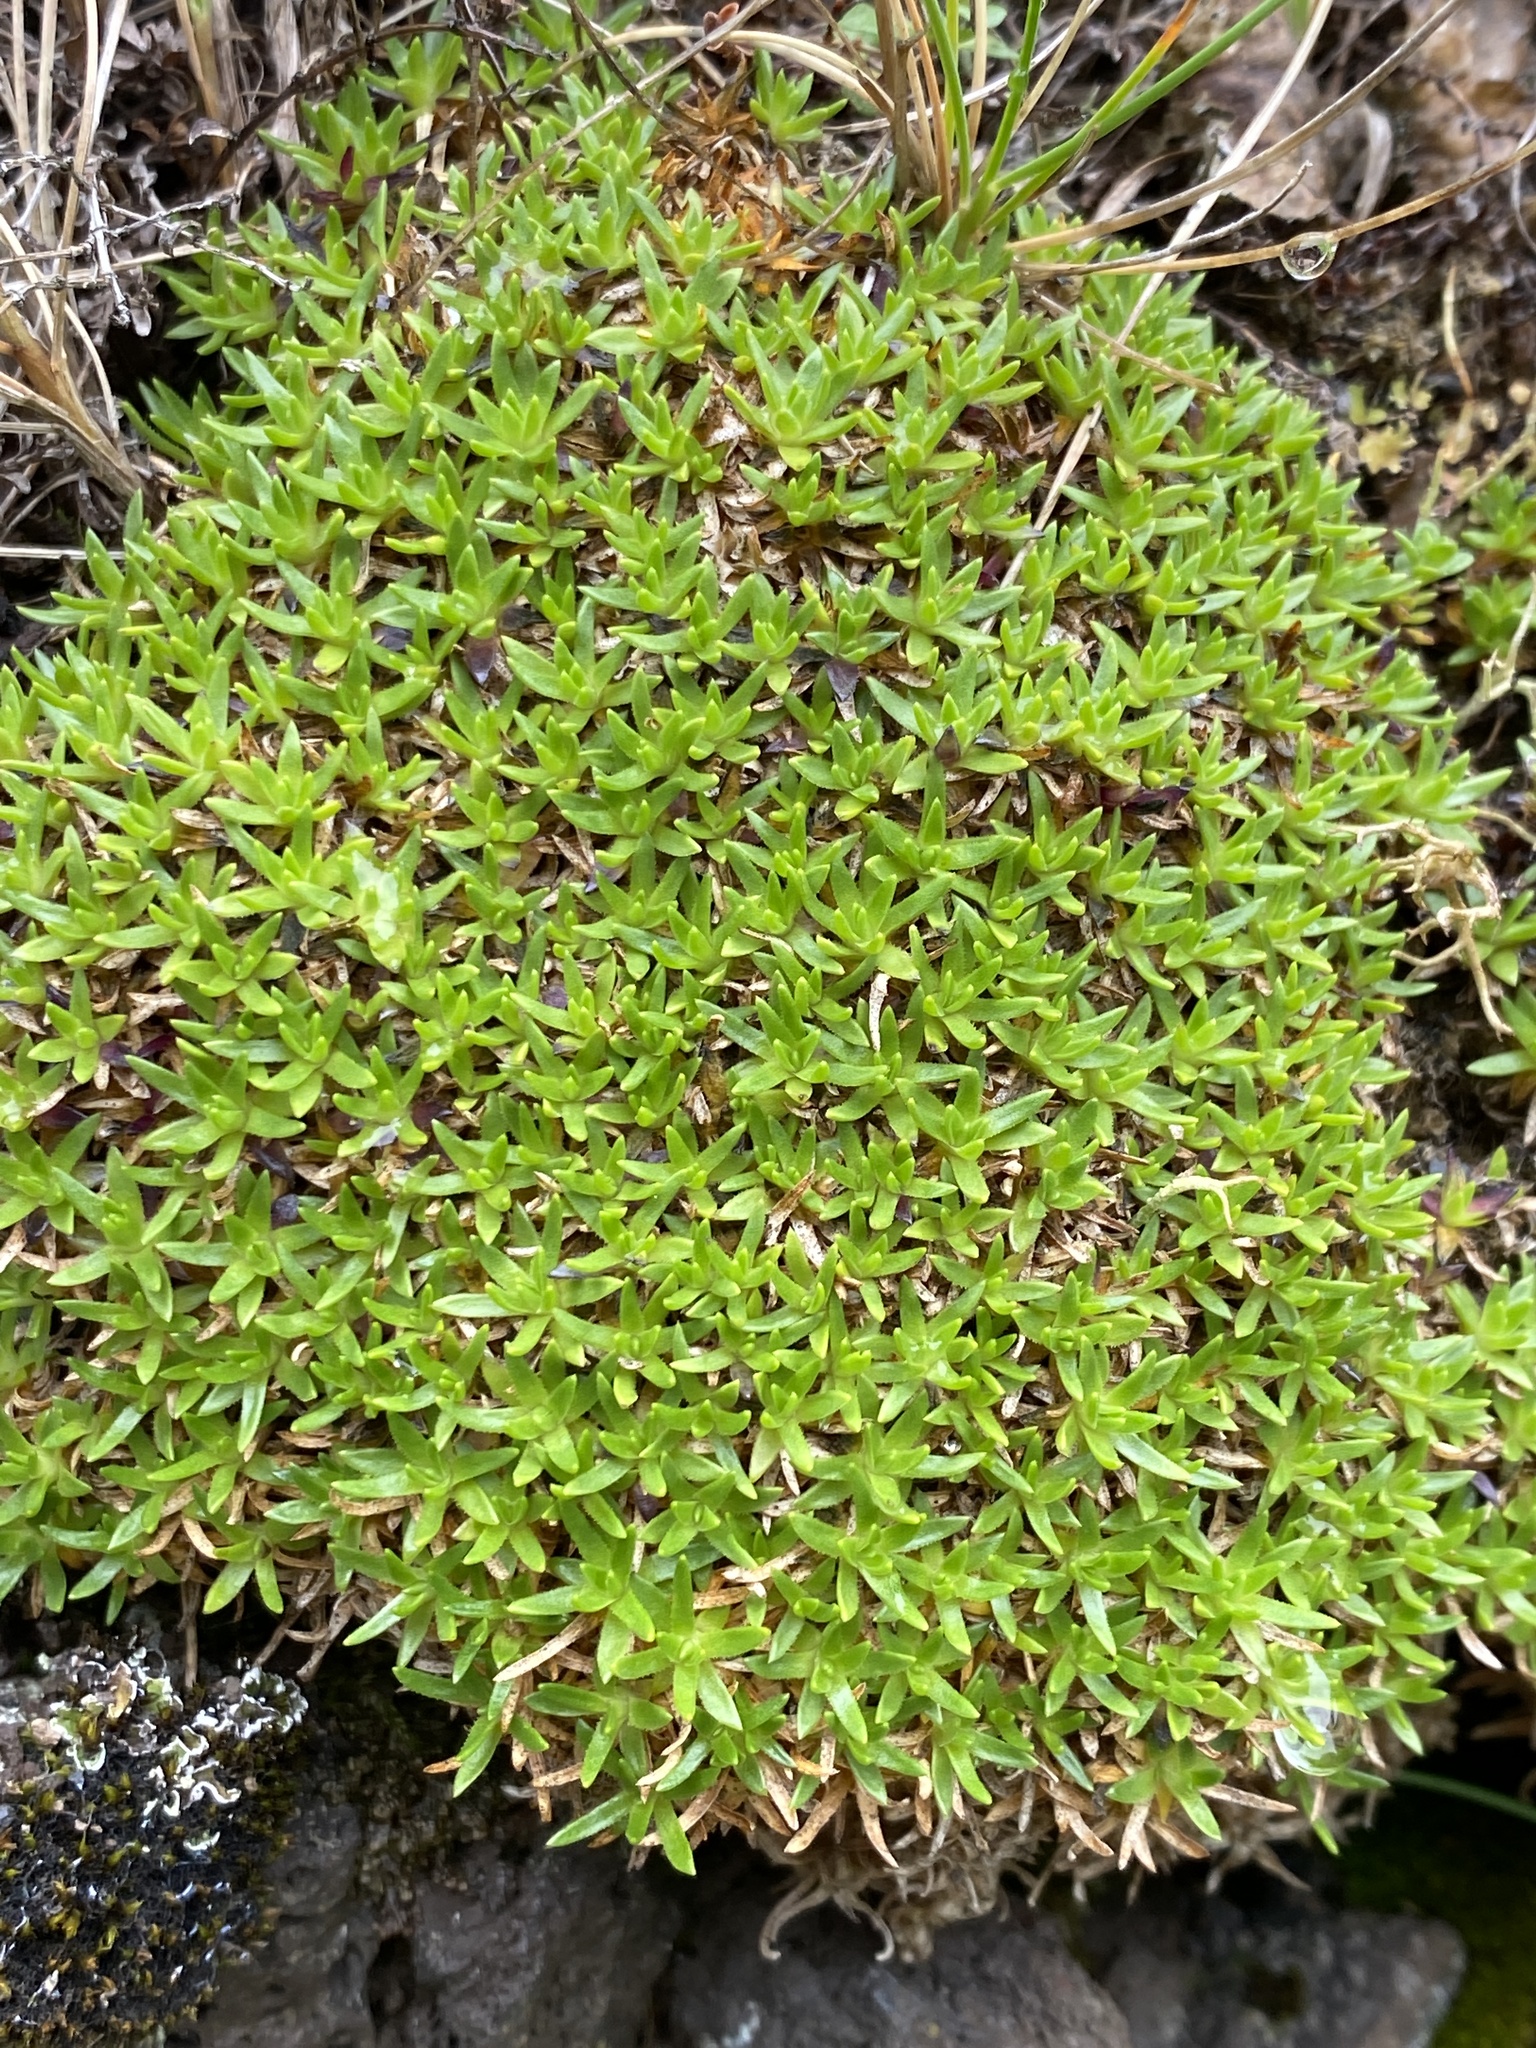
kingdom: Plantae
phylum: Tracheophyta
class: Magnoliopsida
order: Caryophyllales
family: Caryophyllaceae
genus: Silene
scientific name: Silene acaulis
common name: Moss campion
